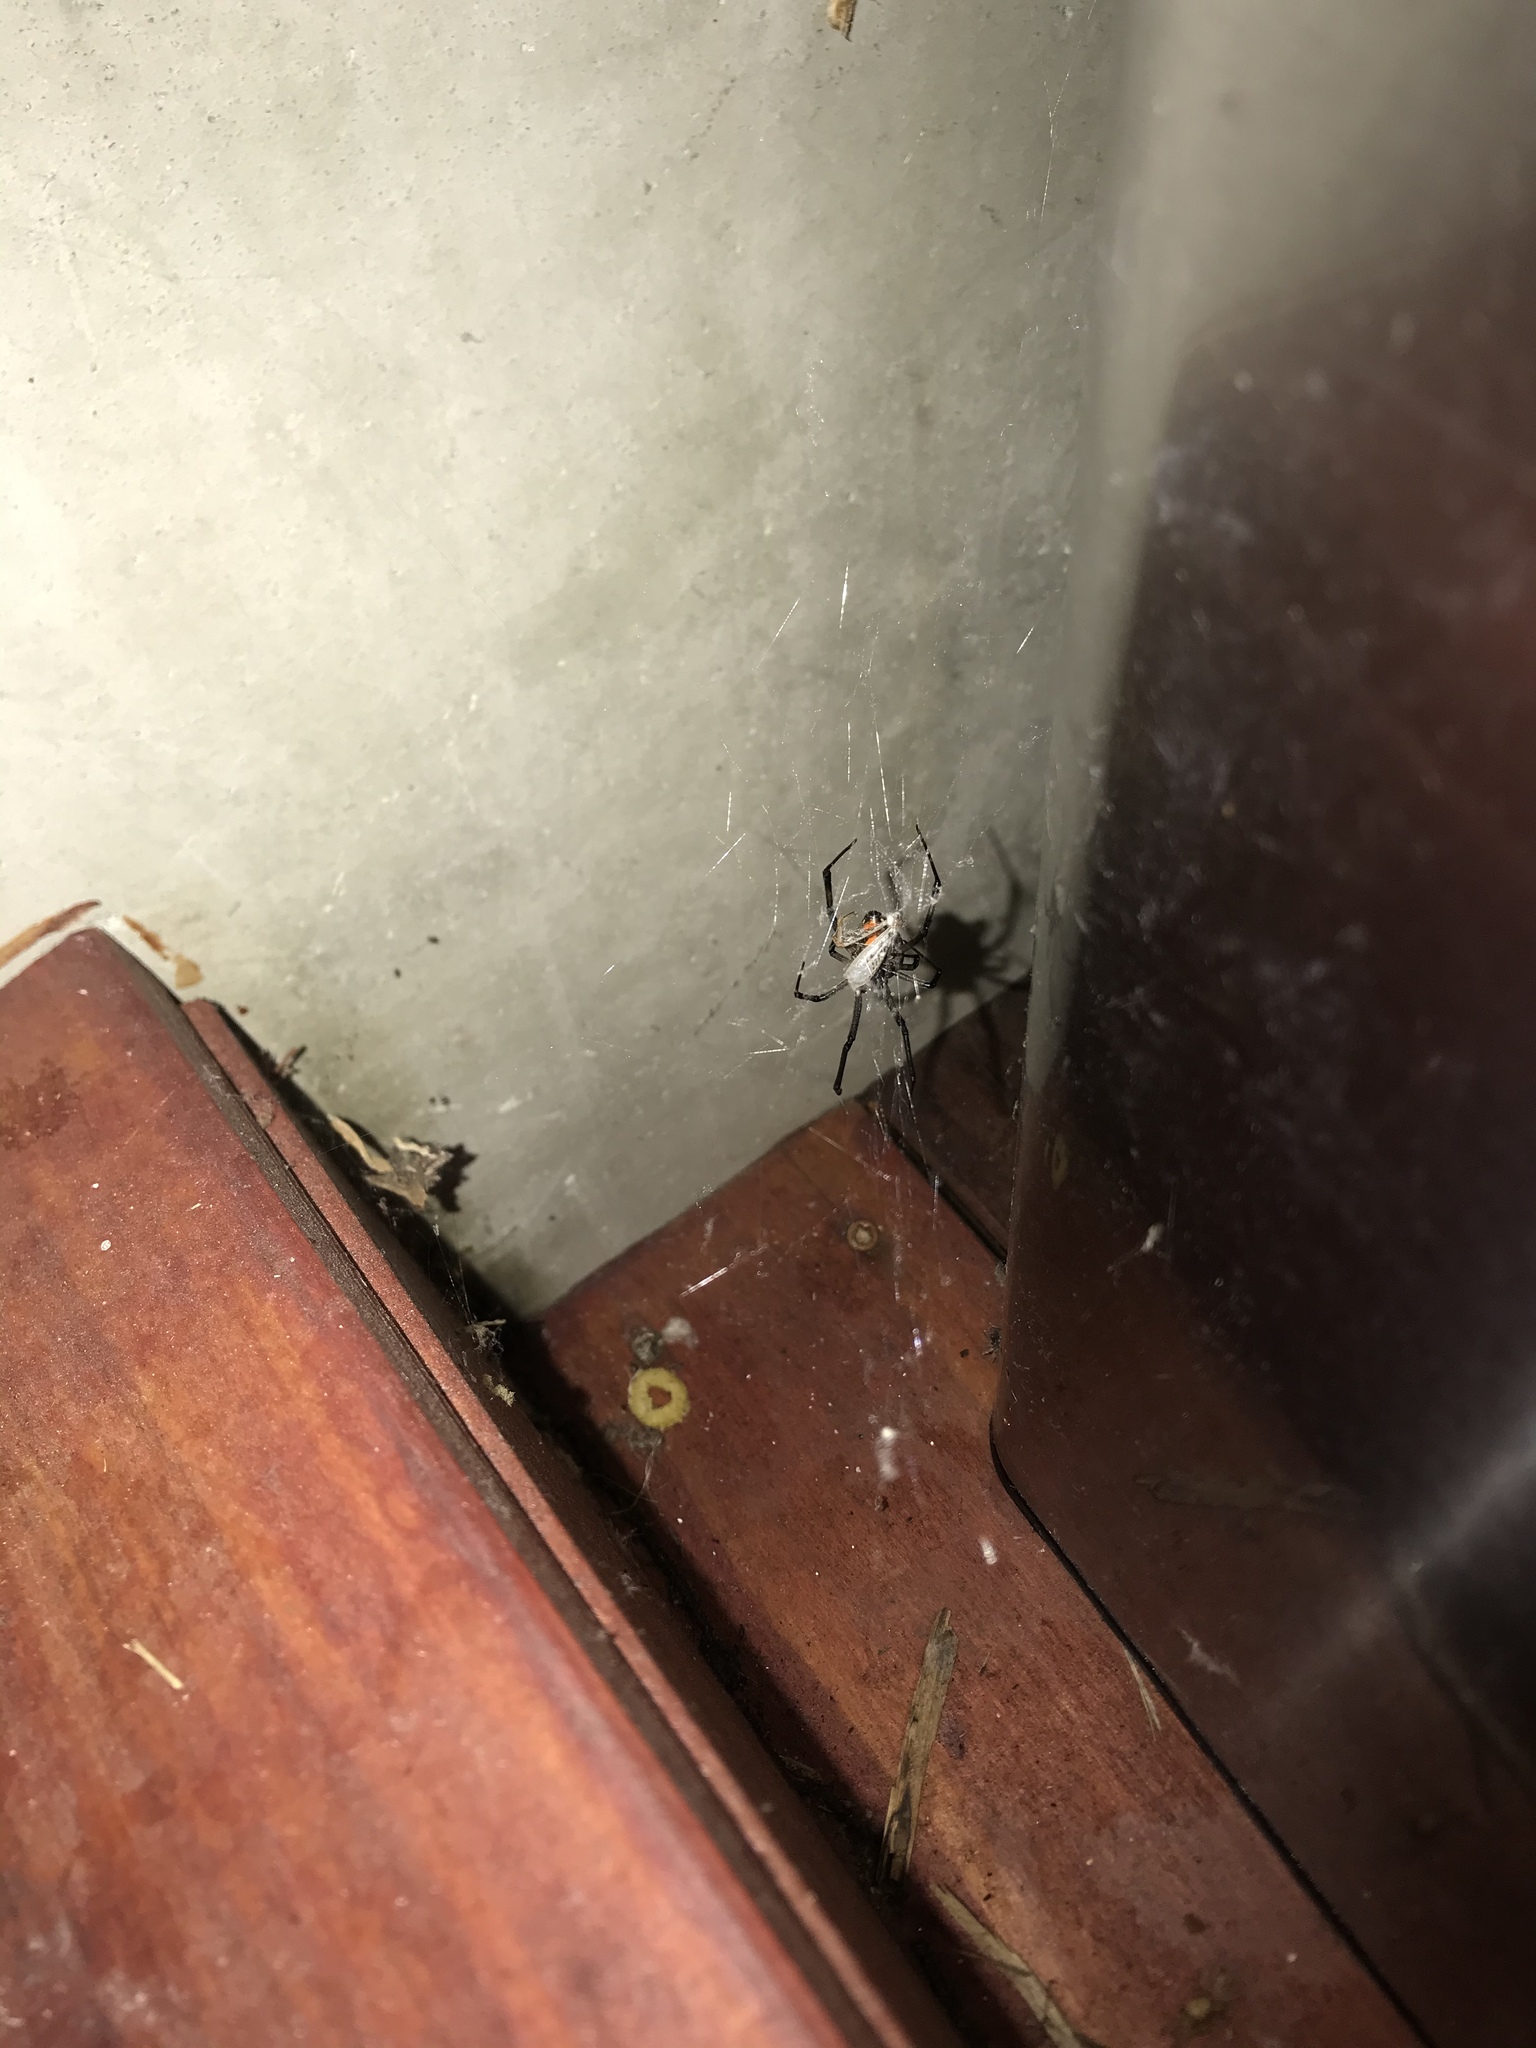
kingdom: Animalia
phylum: Arthropoda
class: Arachnida
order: Araneae
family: Theridiidae
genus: Latrodectus
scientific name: Latrodectus geometricus
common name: Brown widow spider
